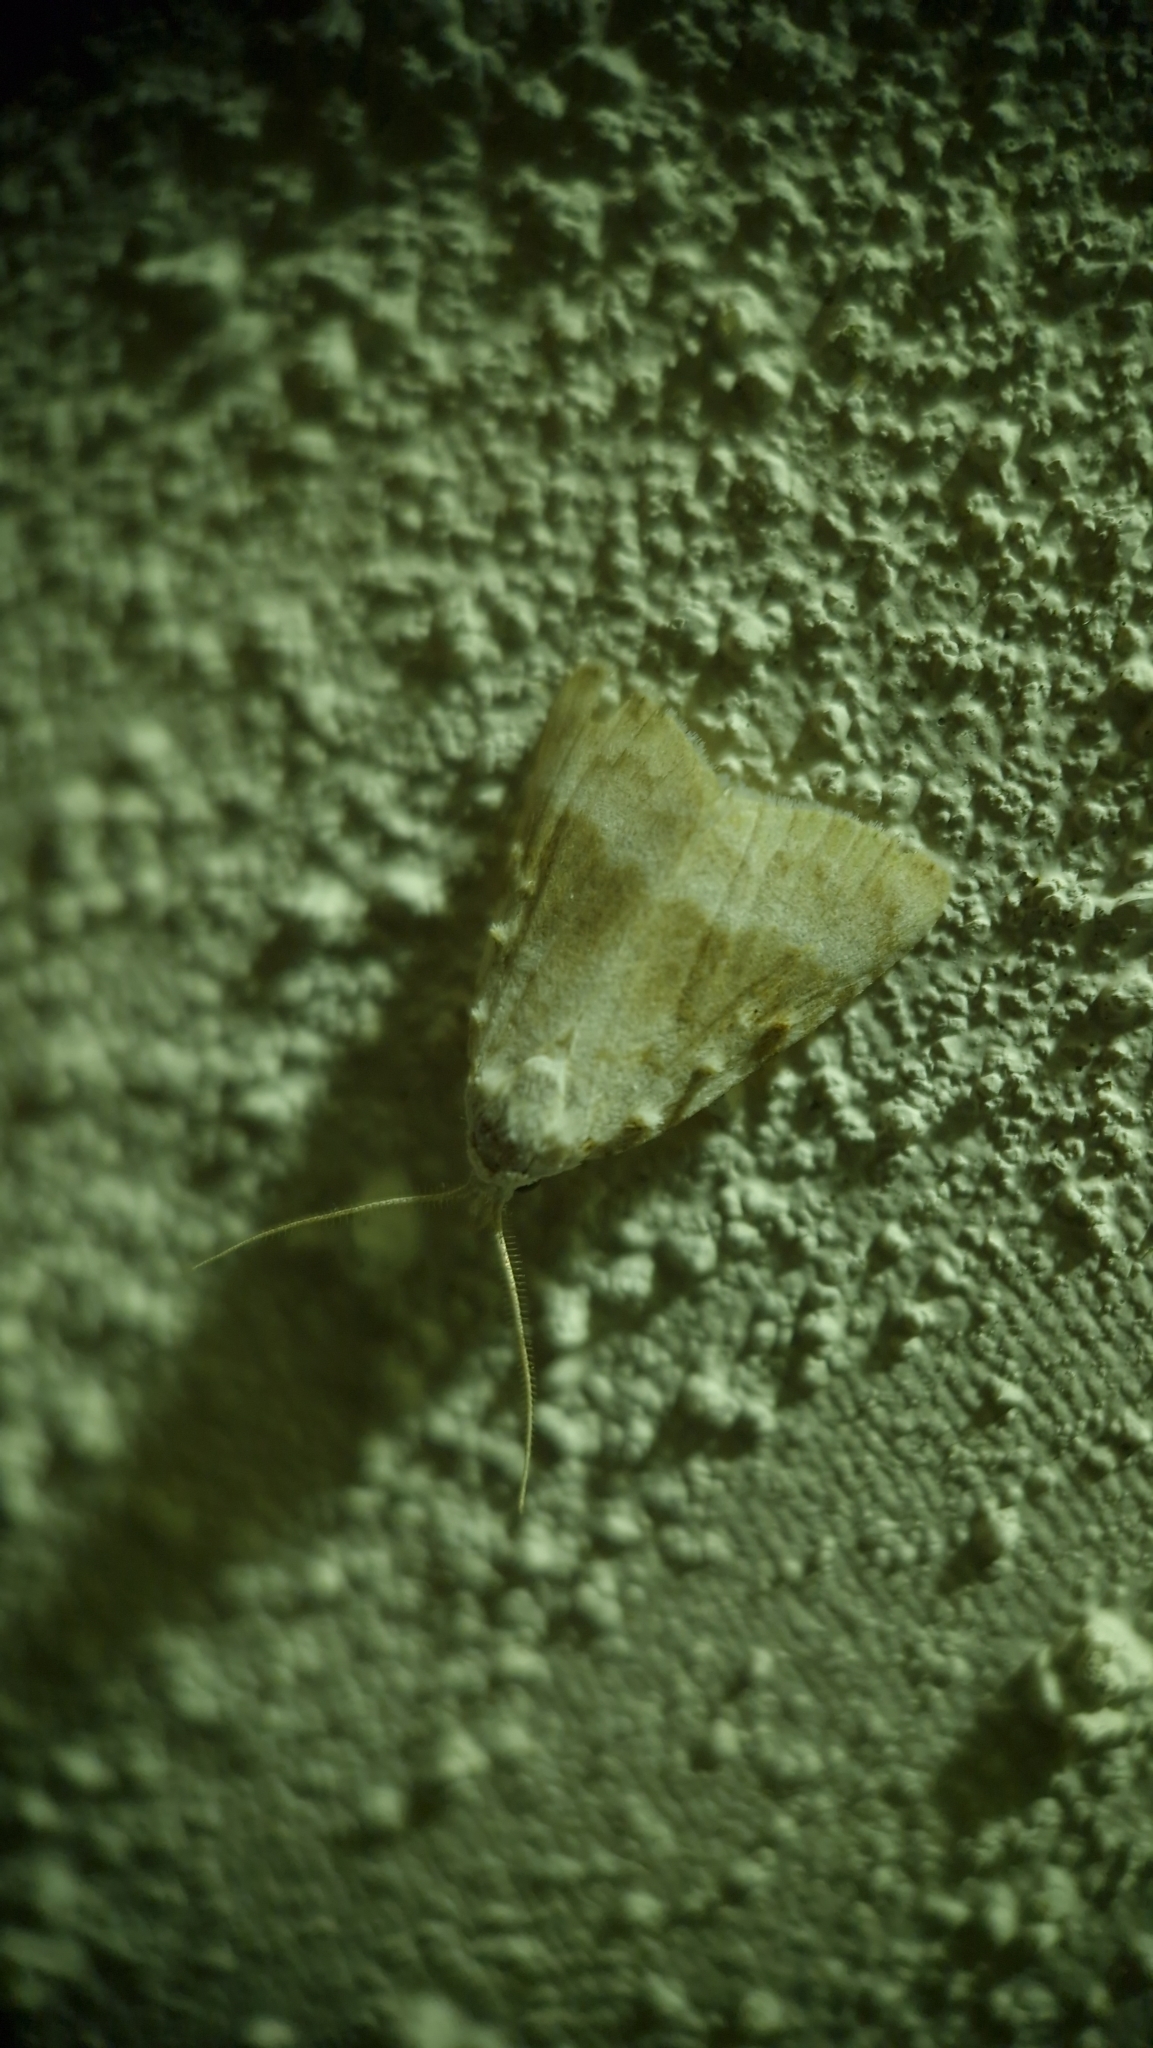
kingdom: Animalia
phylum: Arthropoda
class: Insecta
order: Lepidoptera
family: Nolidae
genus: Meganola
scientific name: Meganola albula
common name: Kent black arches
